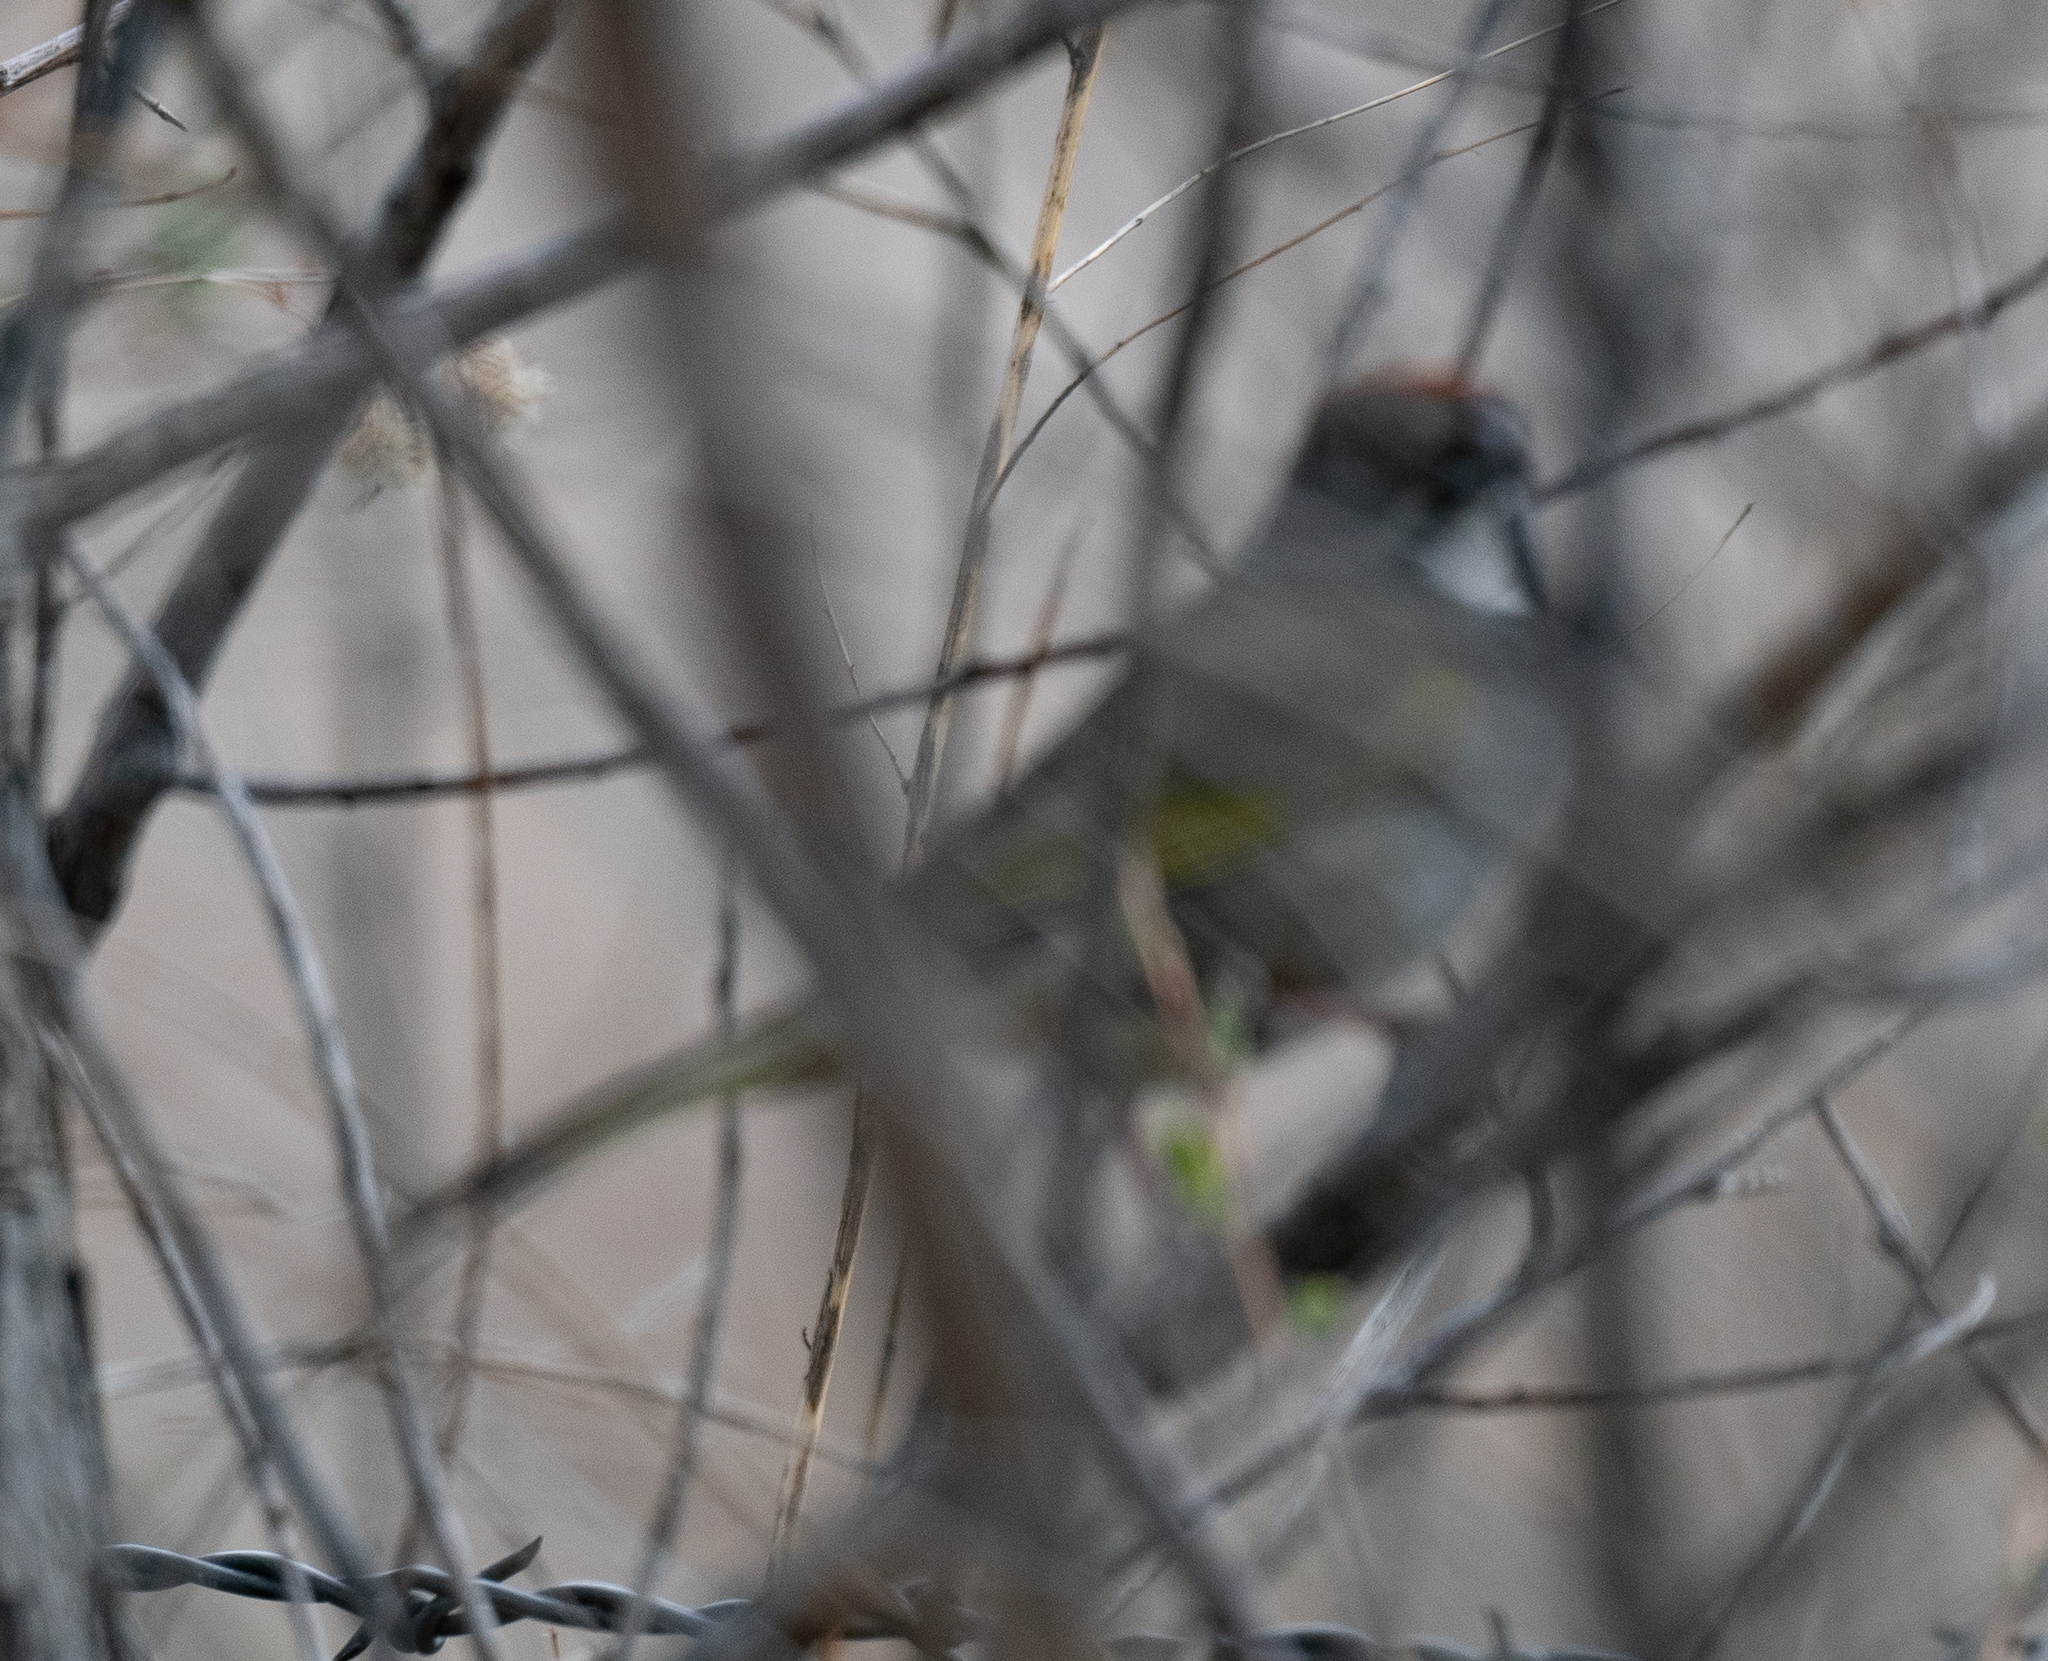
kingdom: Animalia
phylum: Chordata
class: Aves
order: Passeriformes
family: Passerellidae
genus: Pipilo
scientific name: Pipilo chlorurus
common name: Green-tailed towhee
